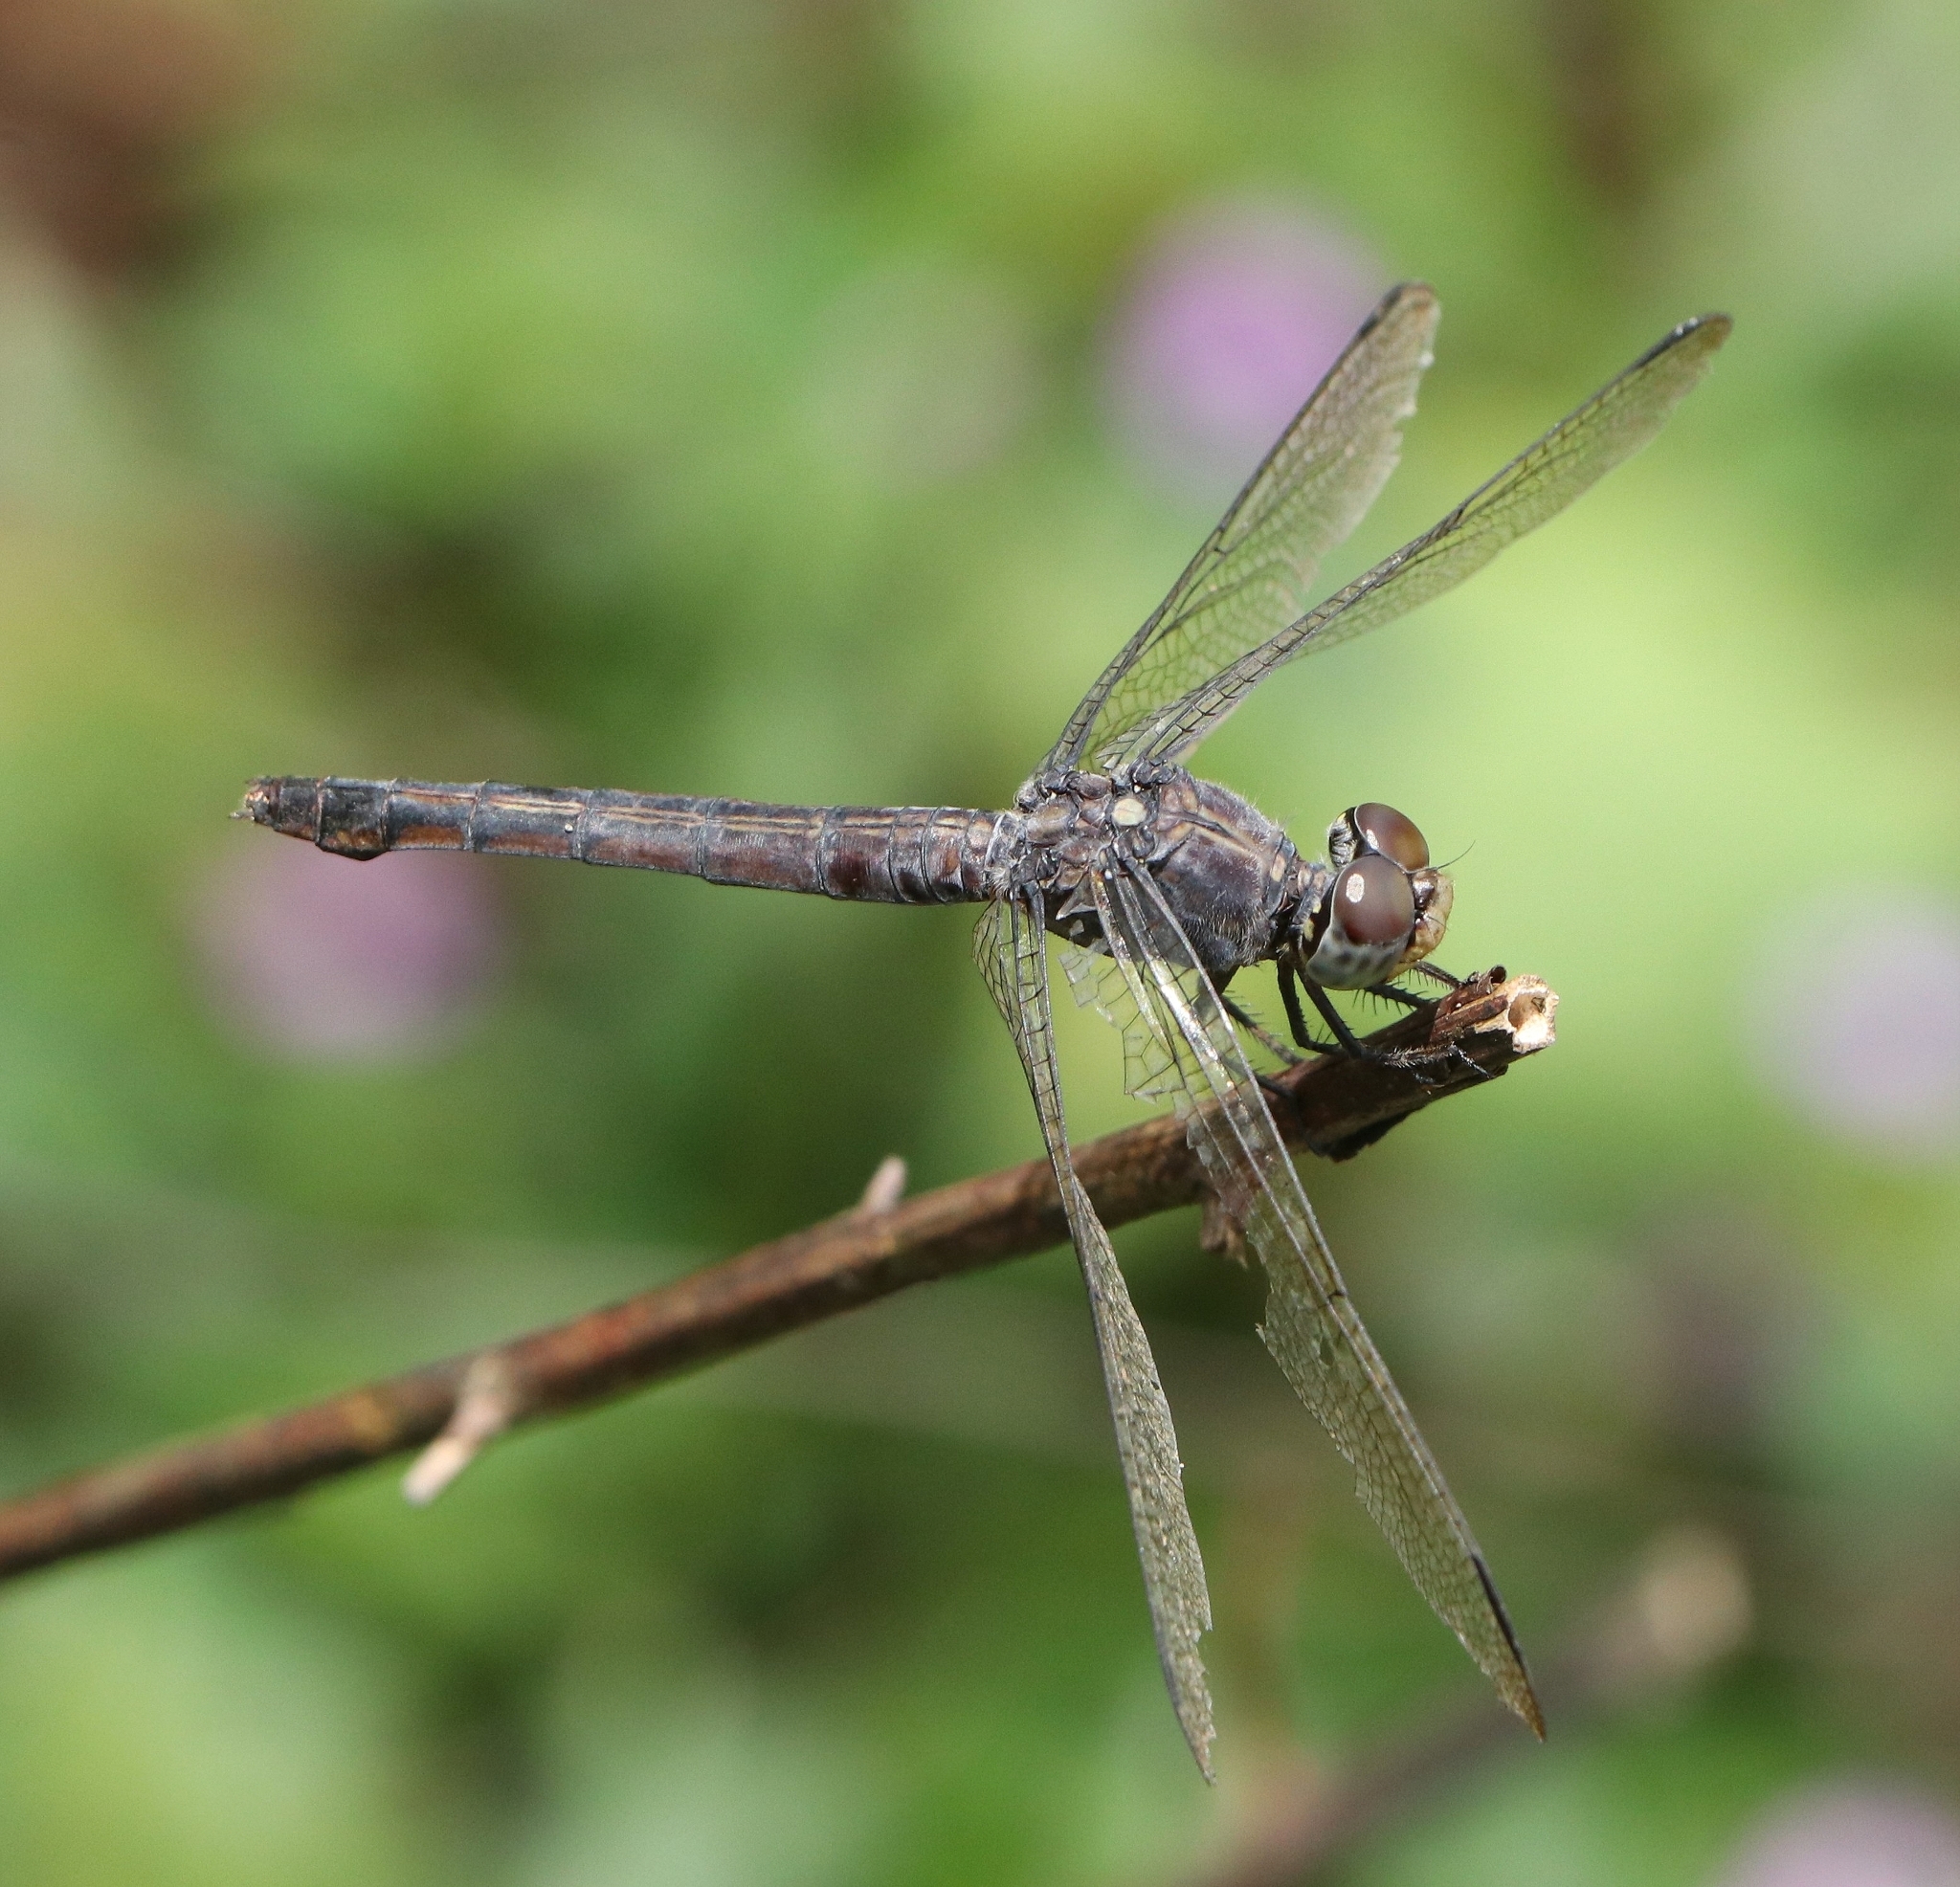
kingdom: Animalia
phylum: Arthropoda
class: Insecta
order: Odonata
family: Libellulidae
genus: Potamarcha
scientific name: Potamarcha congener
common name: Blue chaser
